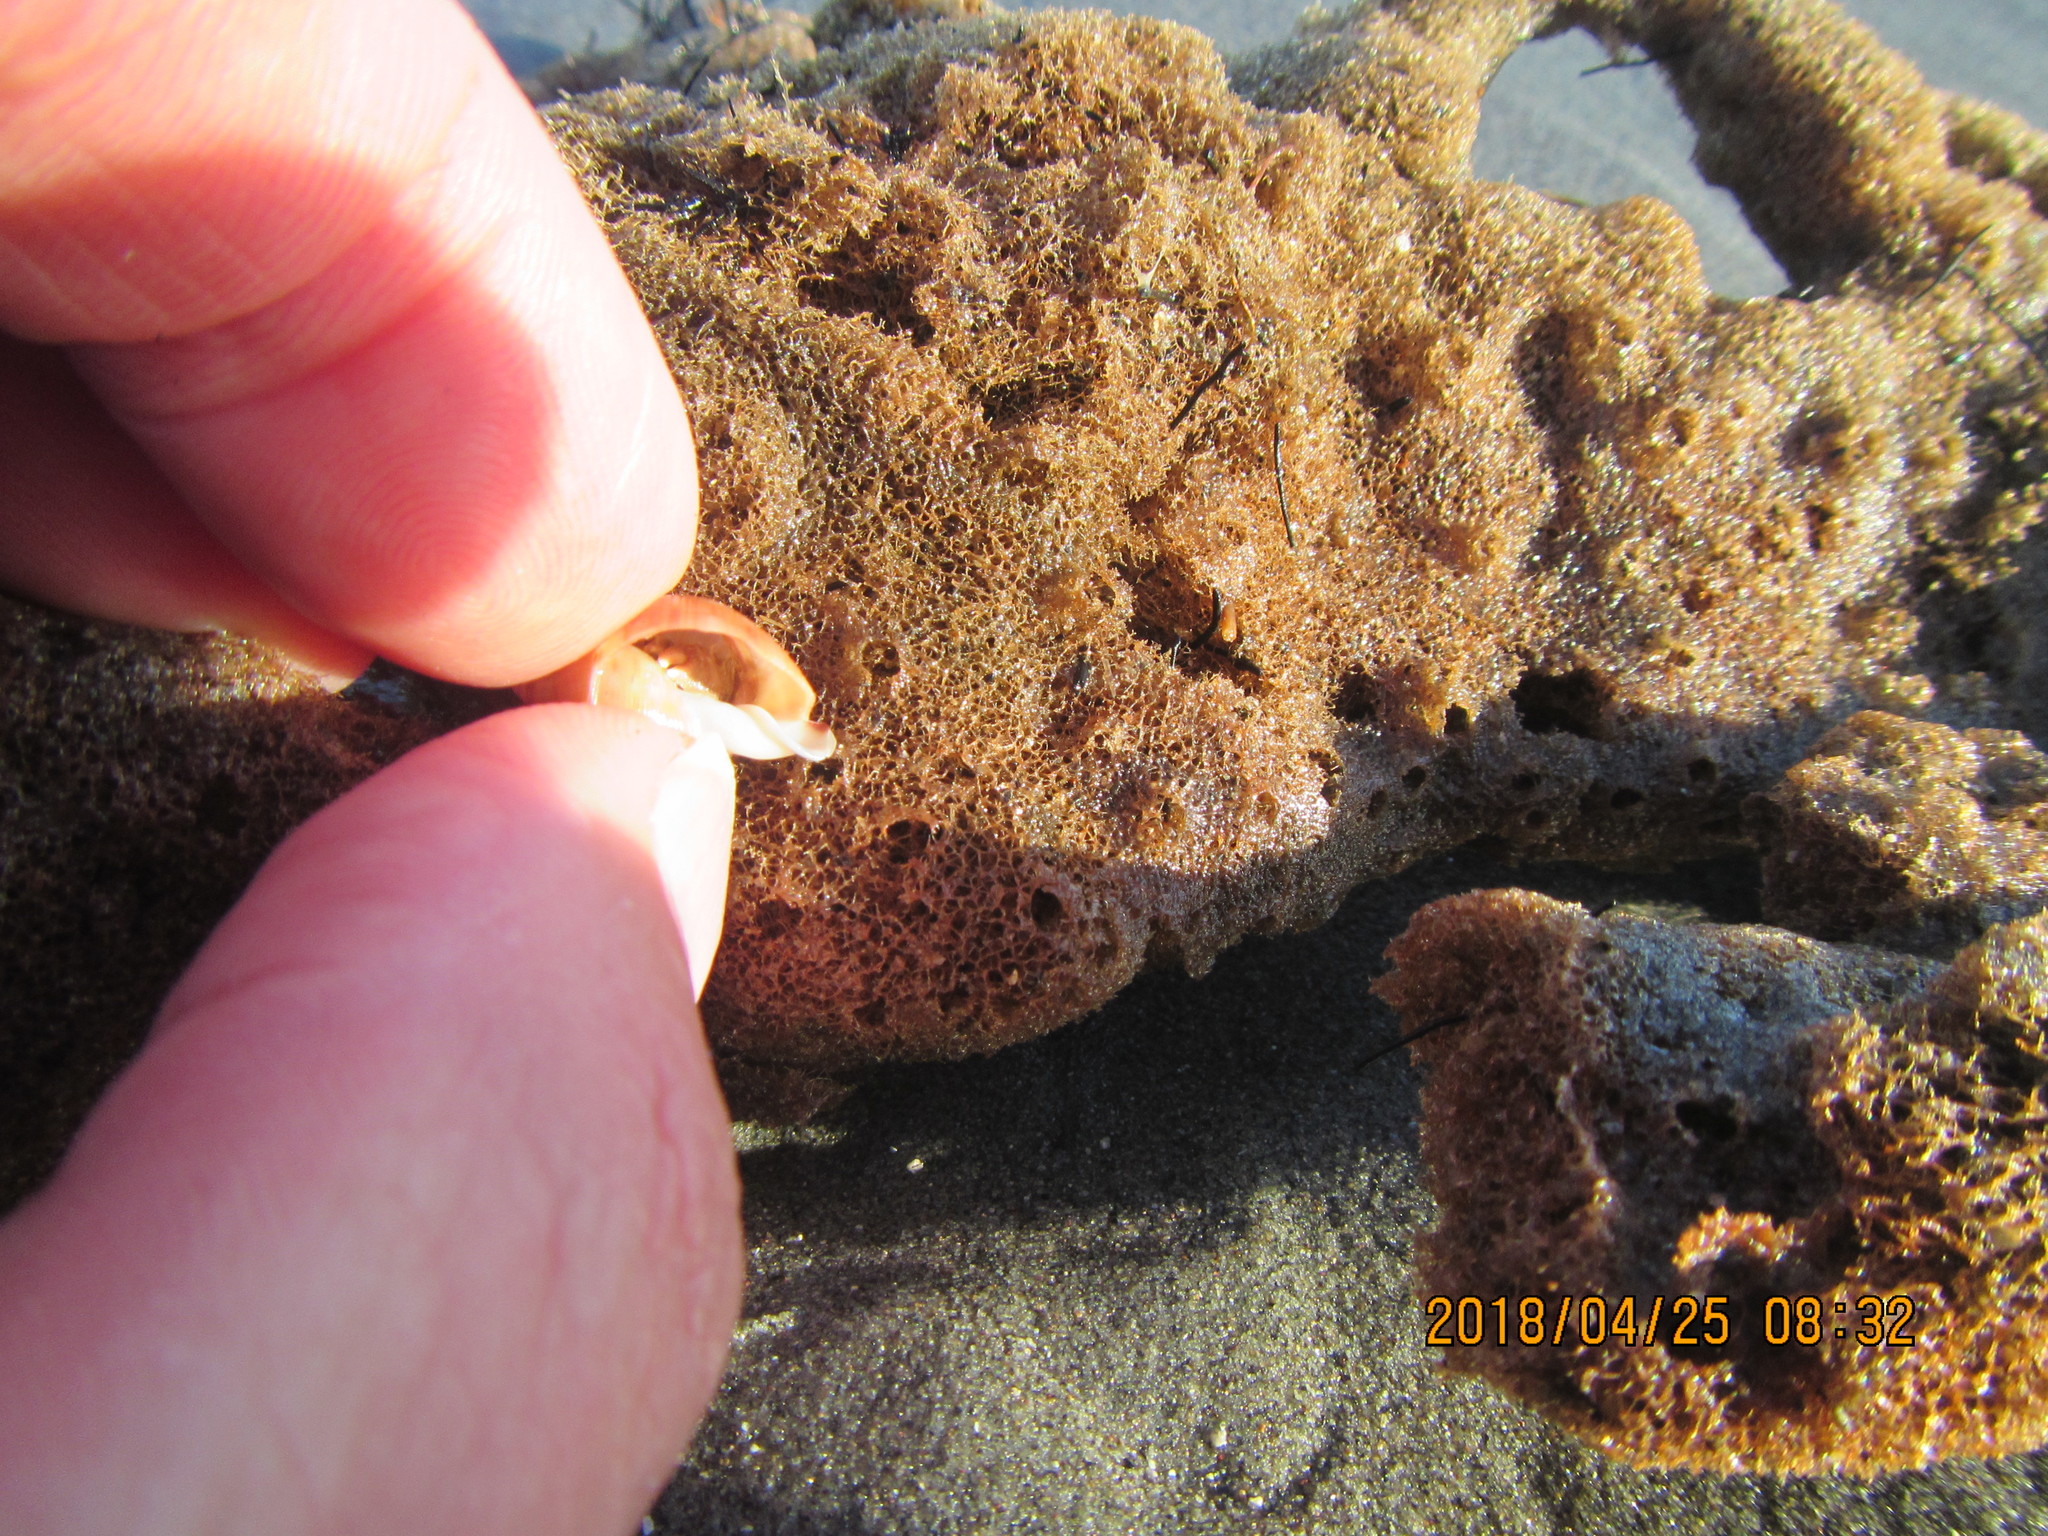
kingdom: Animalia
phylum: Mollusca
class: Gastropoda
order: Littorinimorpha
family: Cassidae
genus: Semicassis
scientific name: Semicassis pyrum
